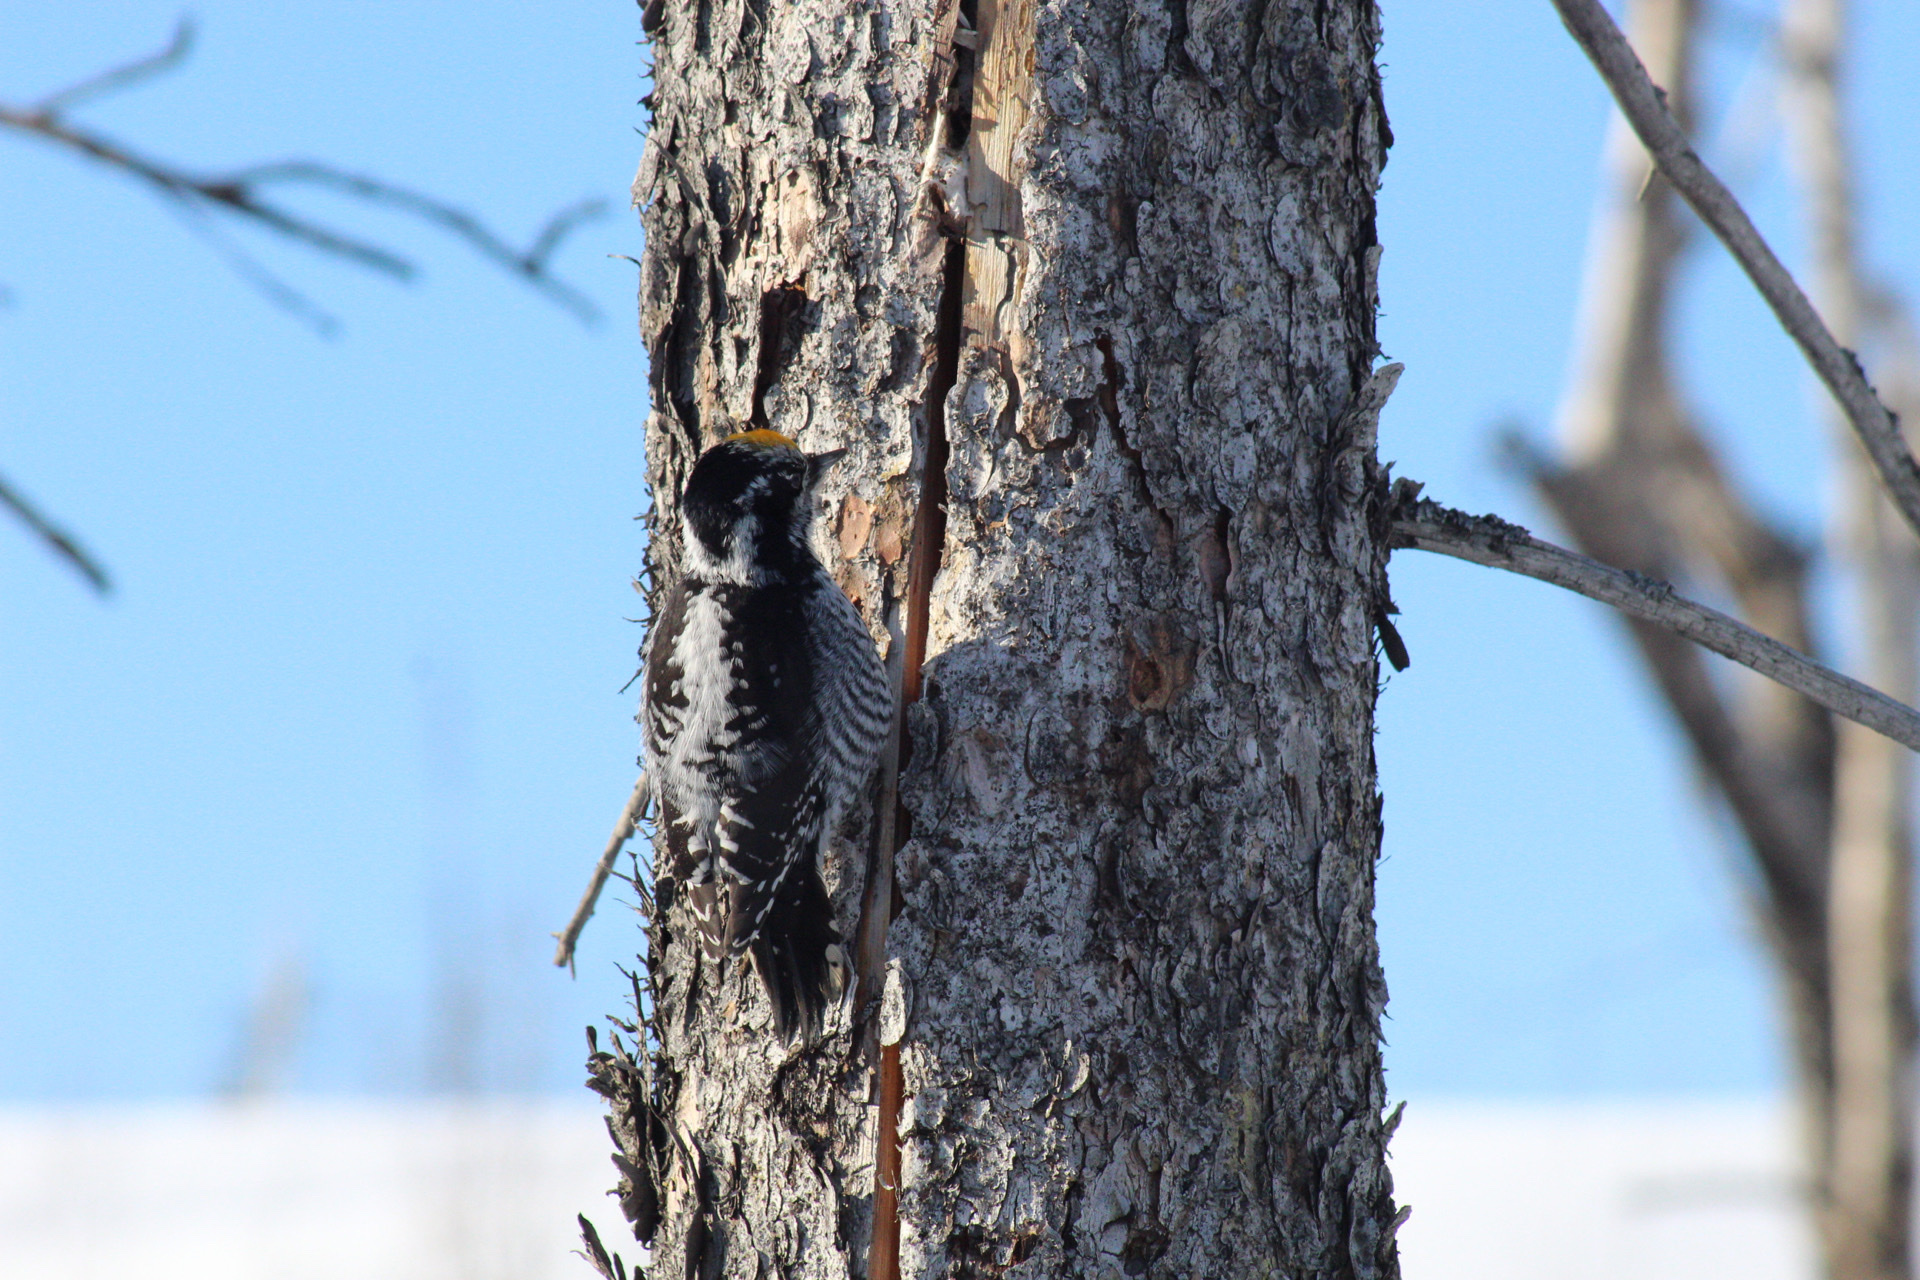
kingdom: Animalia
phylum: Chordata
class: Aves
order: Piciformes
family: Picidae
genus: Picoides
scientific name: Picoides dorsalis
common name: American three-toed woodpecker
